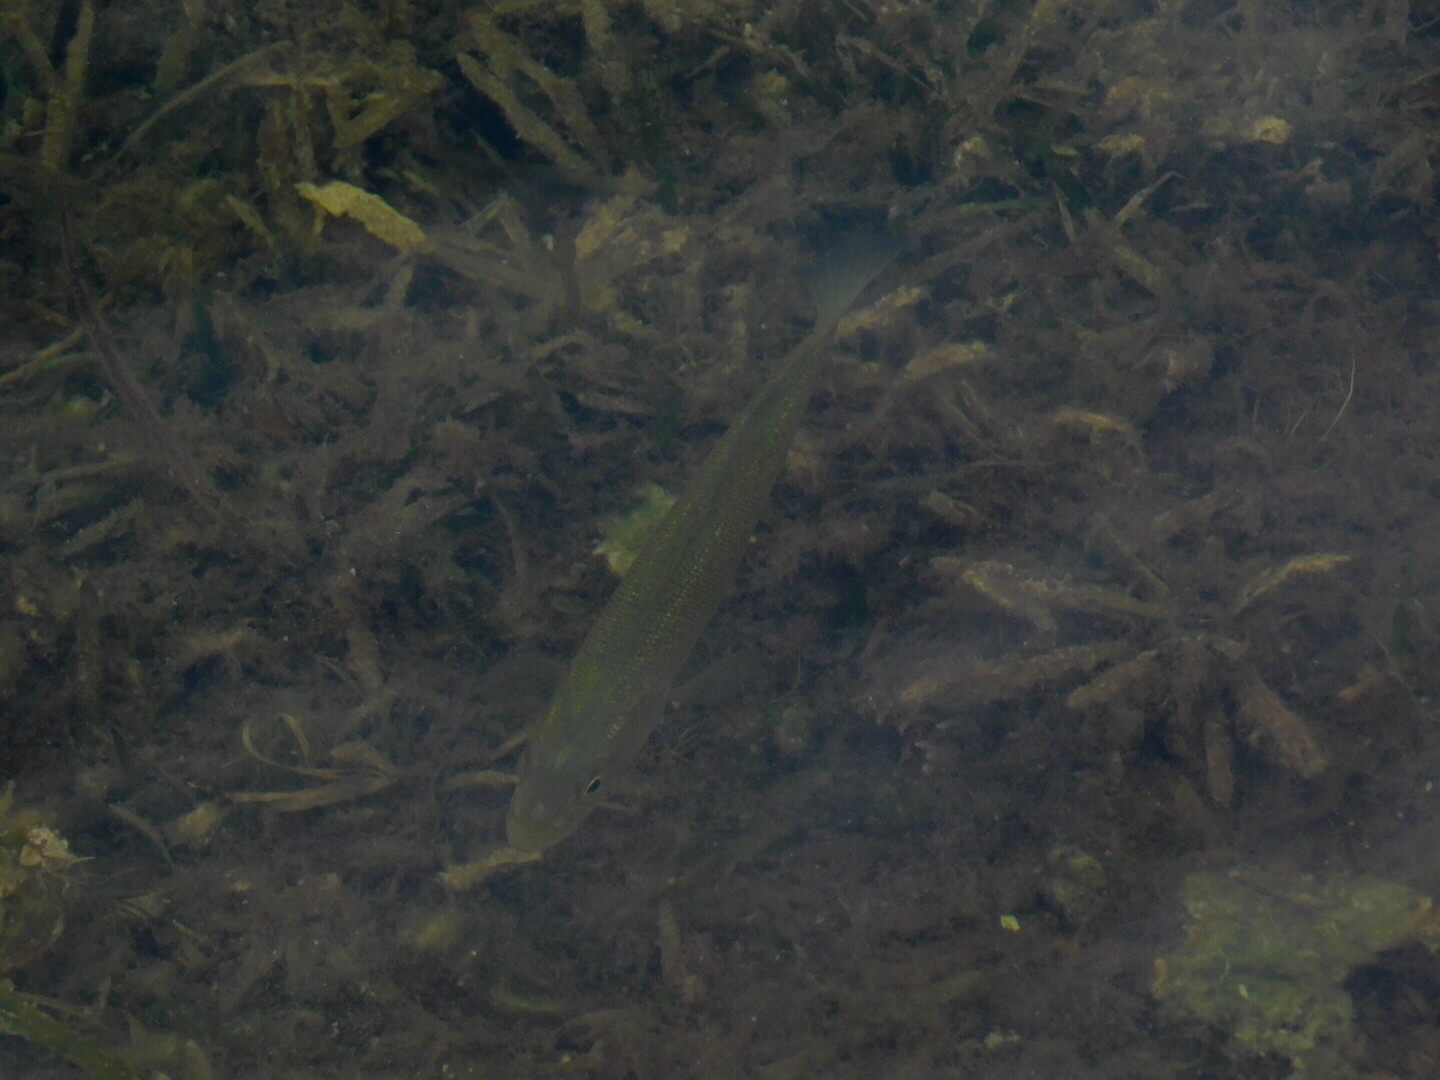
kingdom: Animalia
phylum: Chordata
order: Perciformes
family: Centrarchidae
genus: Micropterus
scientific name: Micropterus salmoides
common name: Largemouth bass
